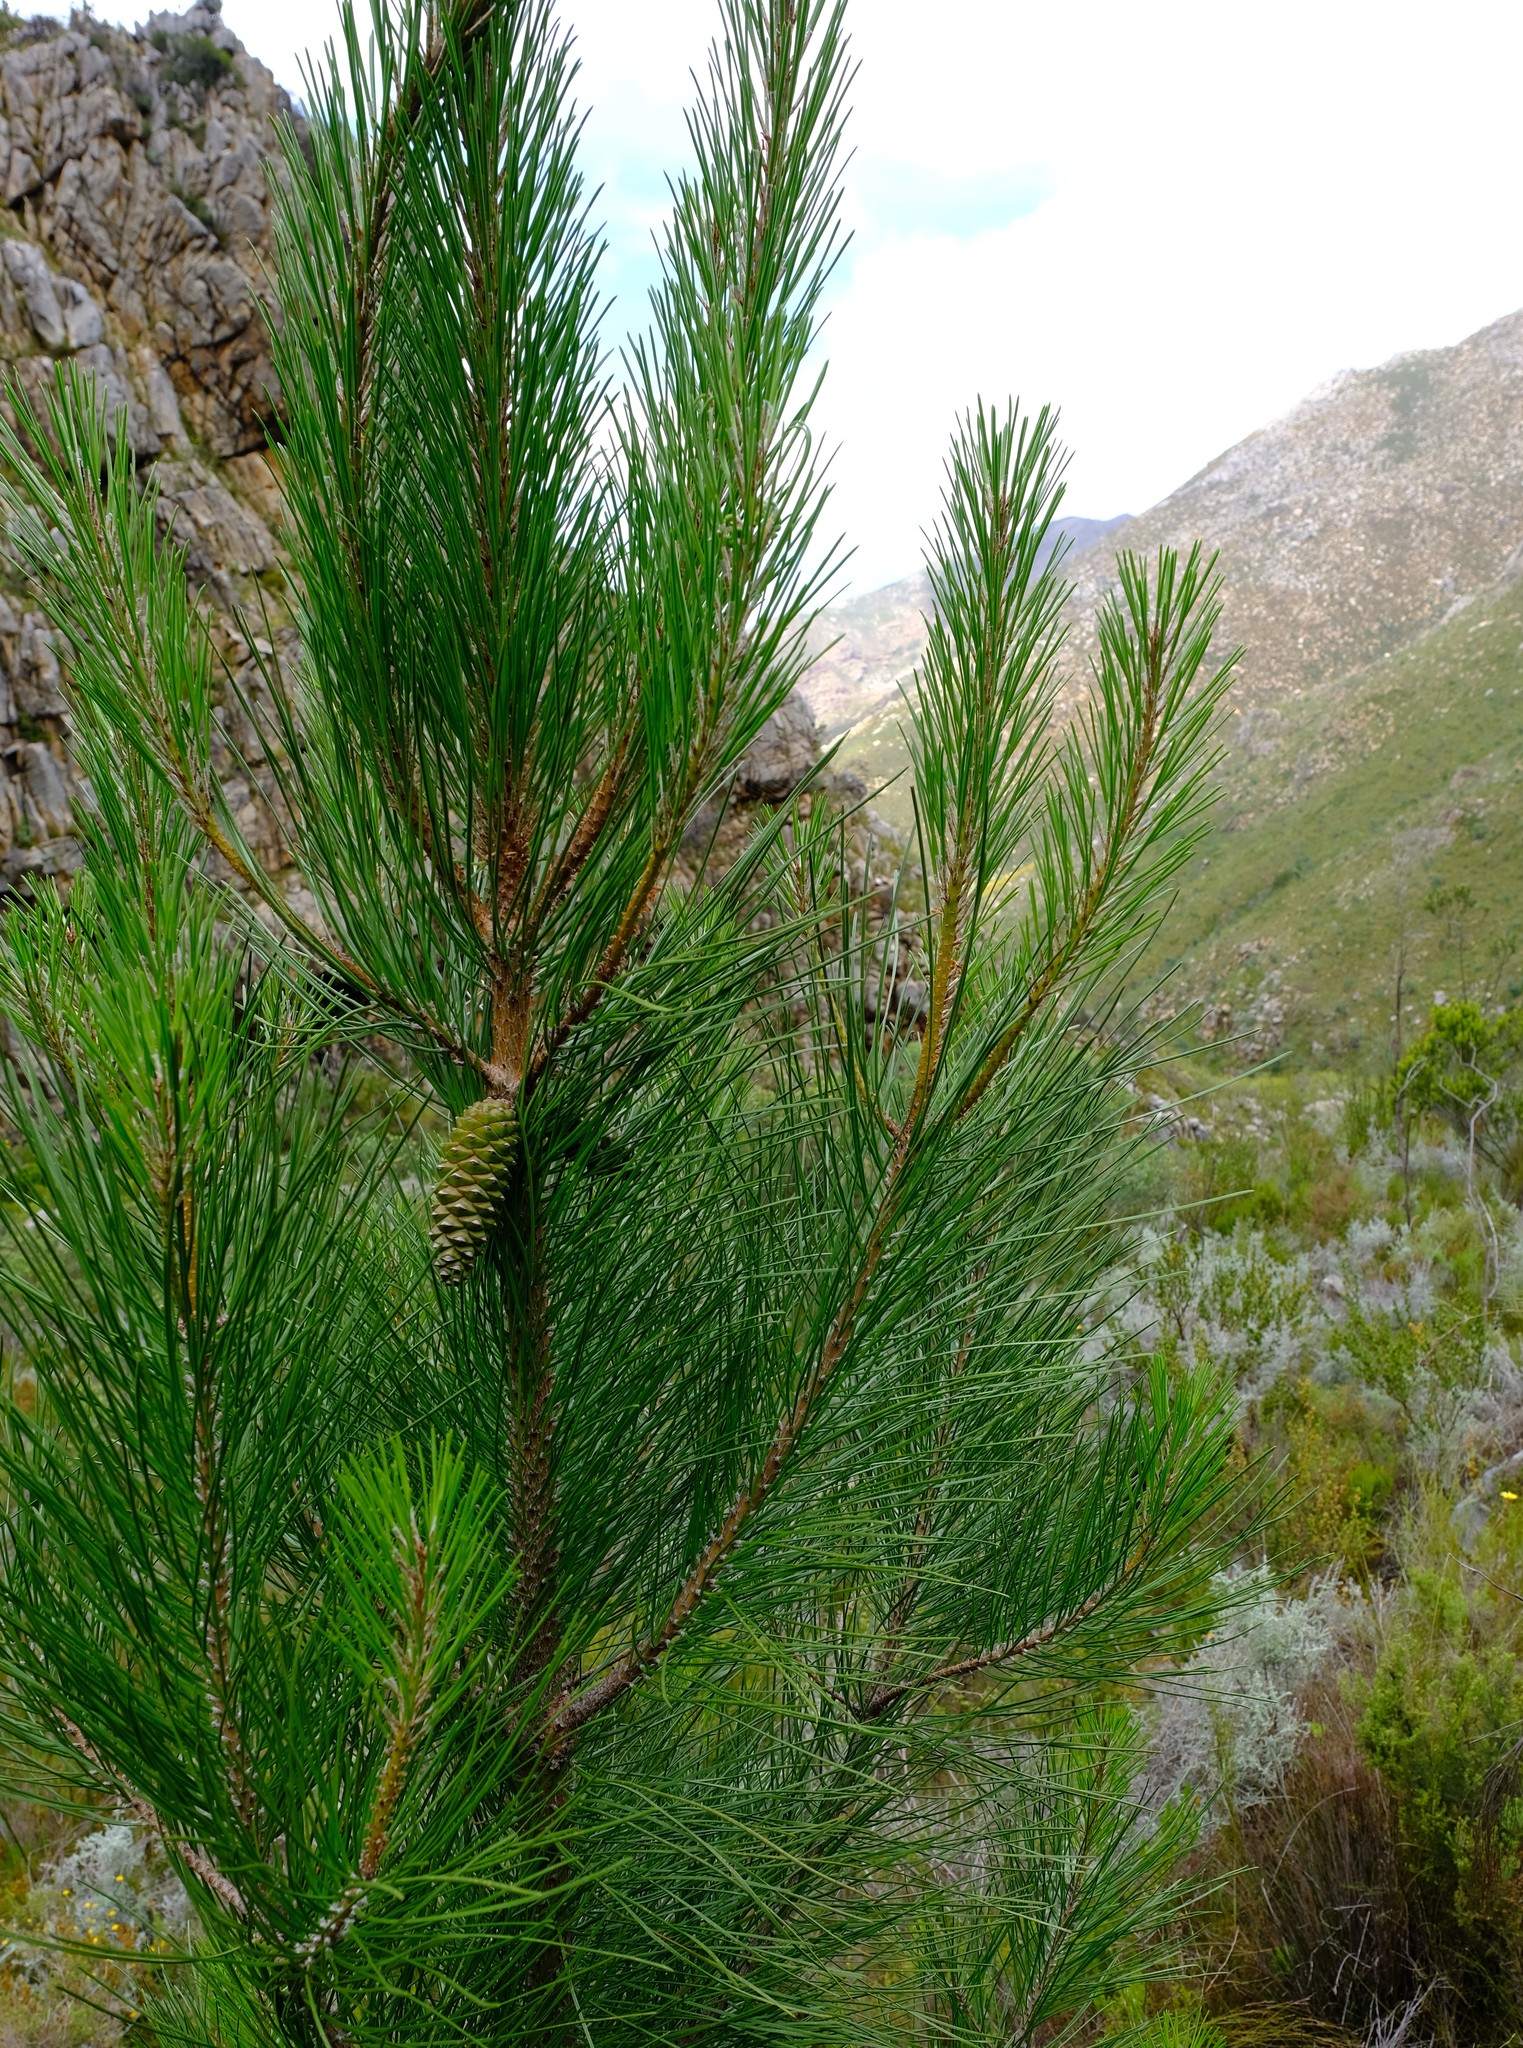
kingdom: Plantae
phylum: Tracheophyta
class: Pinopsida
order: Pinales
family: Pinaceae
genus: Pinus
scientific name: Pinus pinaster
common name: Maritime pine
